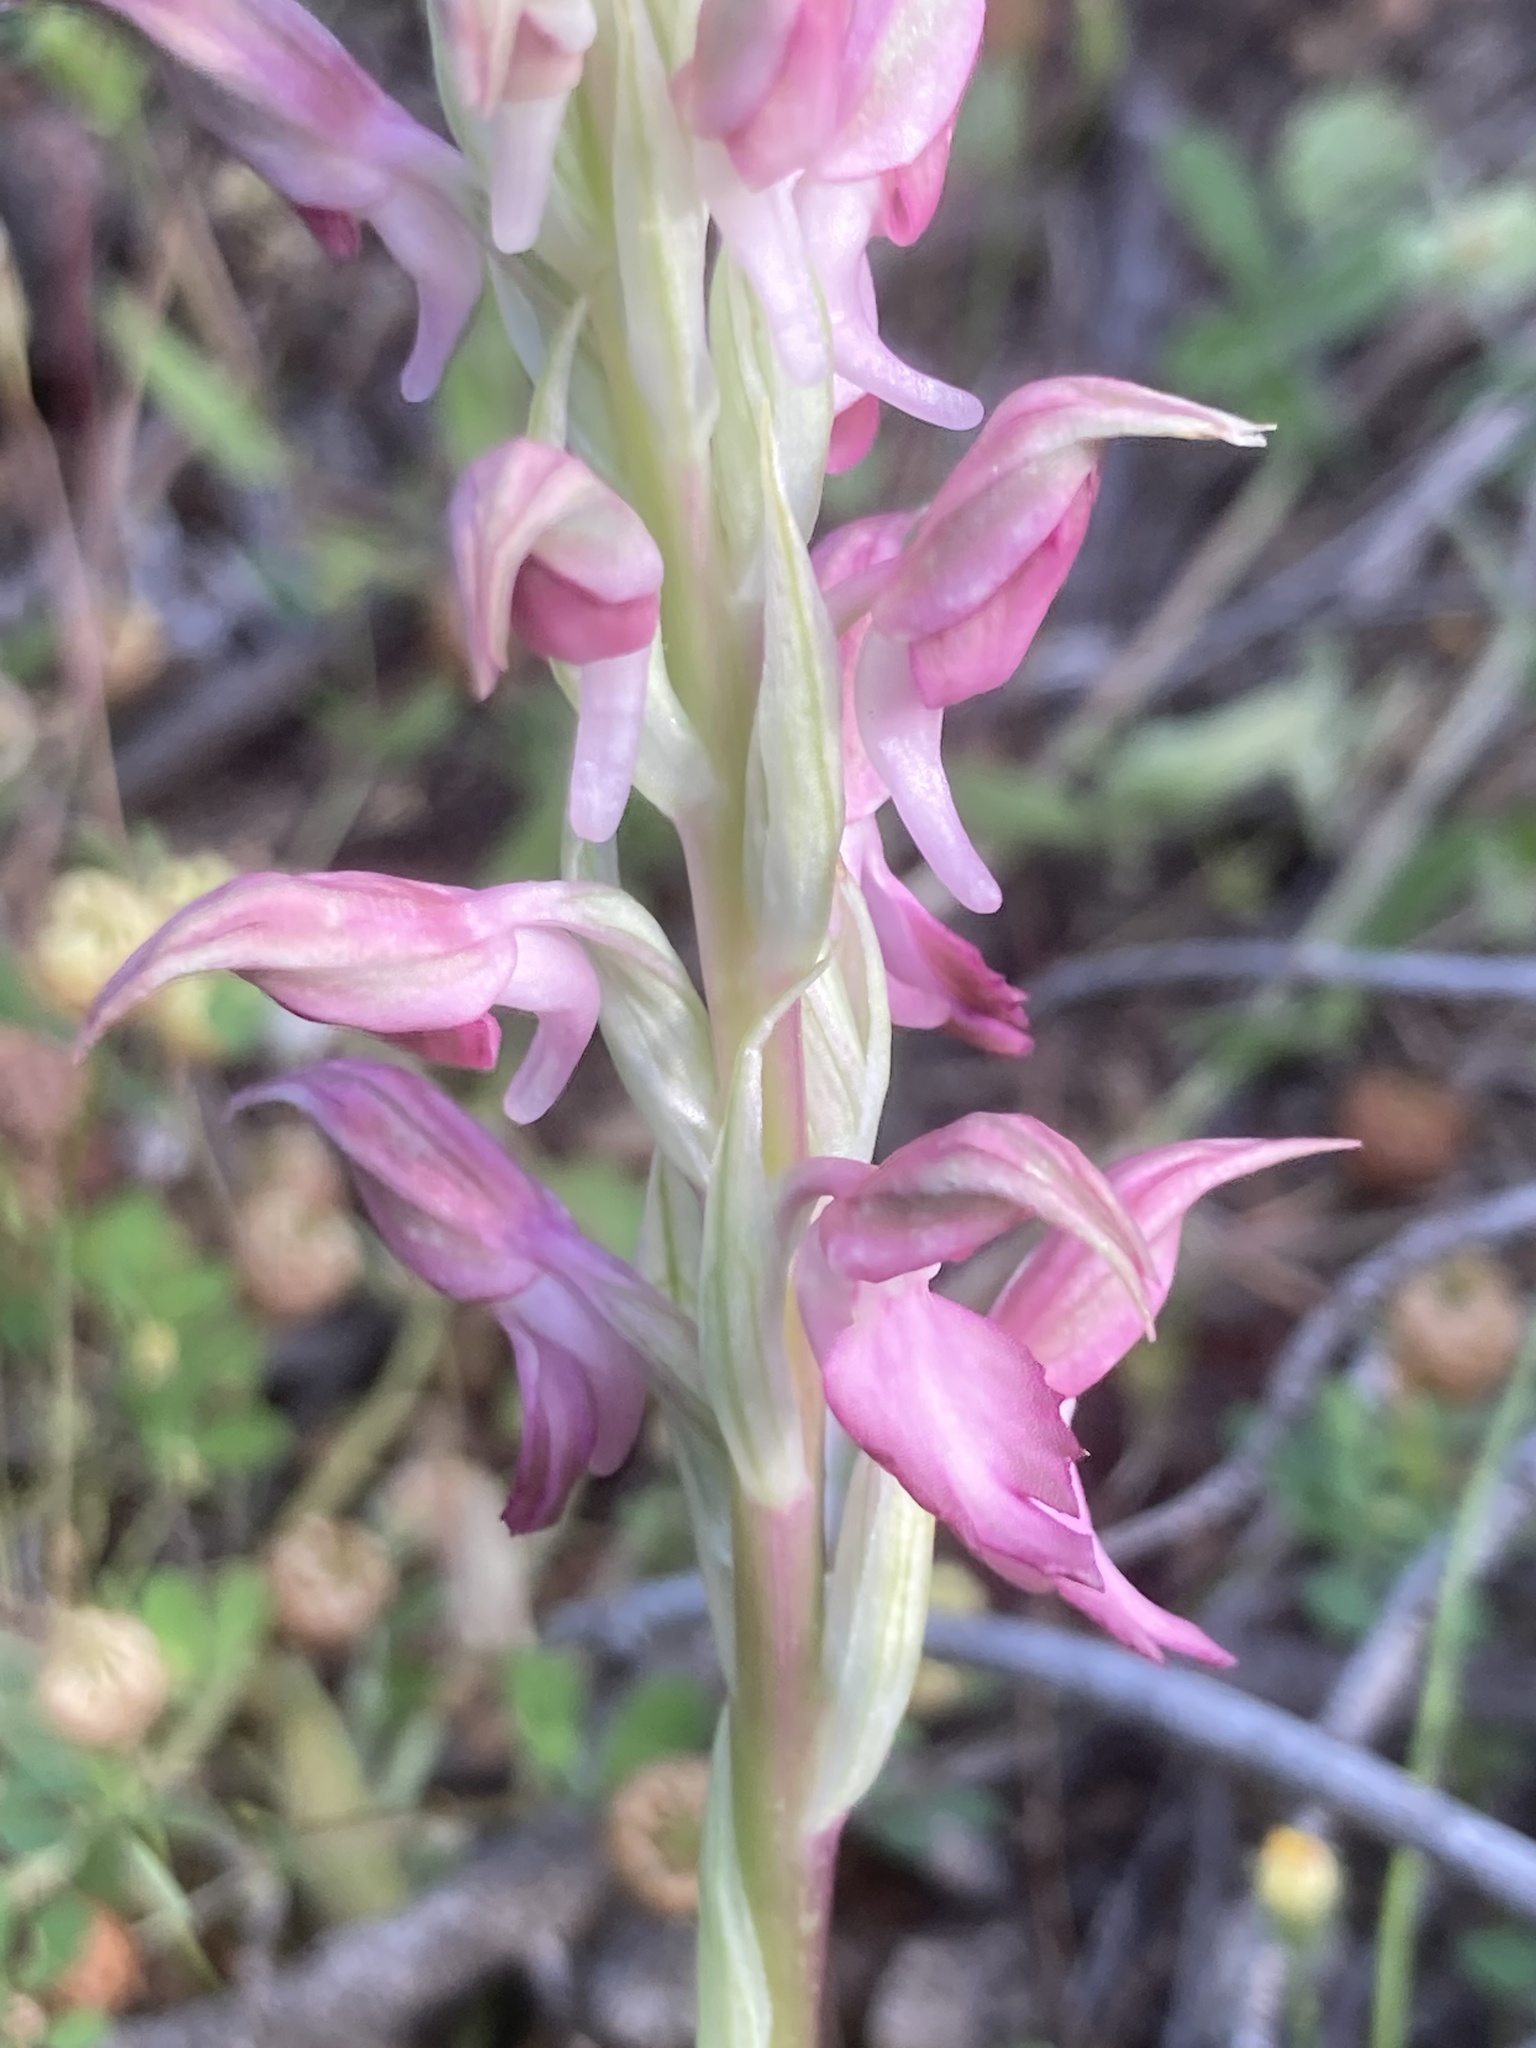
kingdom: Plantae
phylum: Tracheophyta
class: Liliopsida
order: Asparagales
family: Orchidaceae
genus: Anacamptis
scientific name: Anacamptis sancta
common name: Holy orchid
